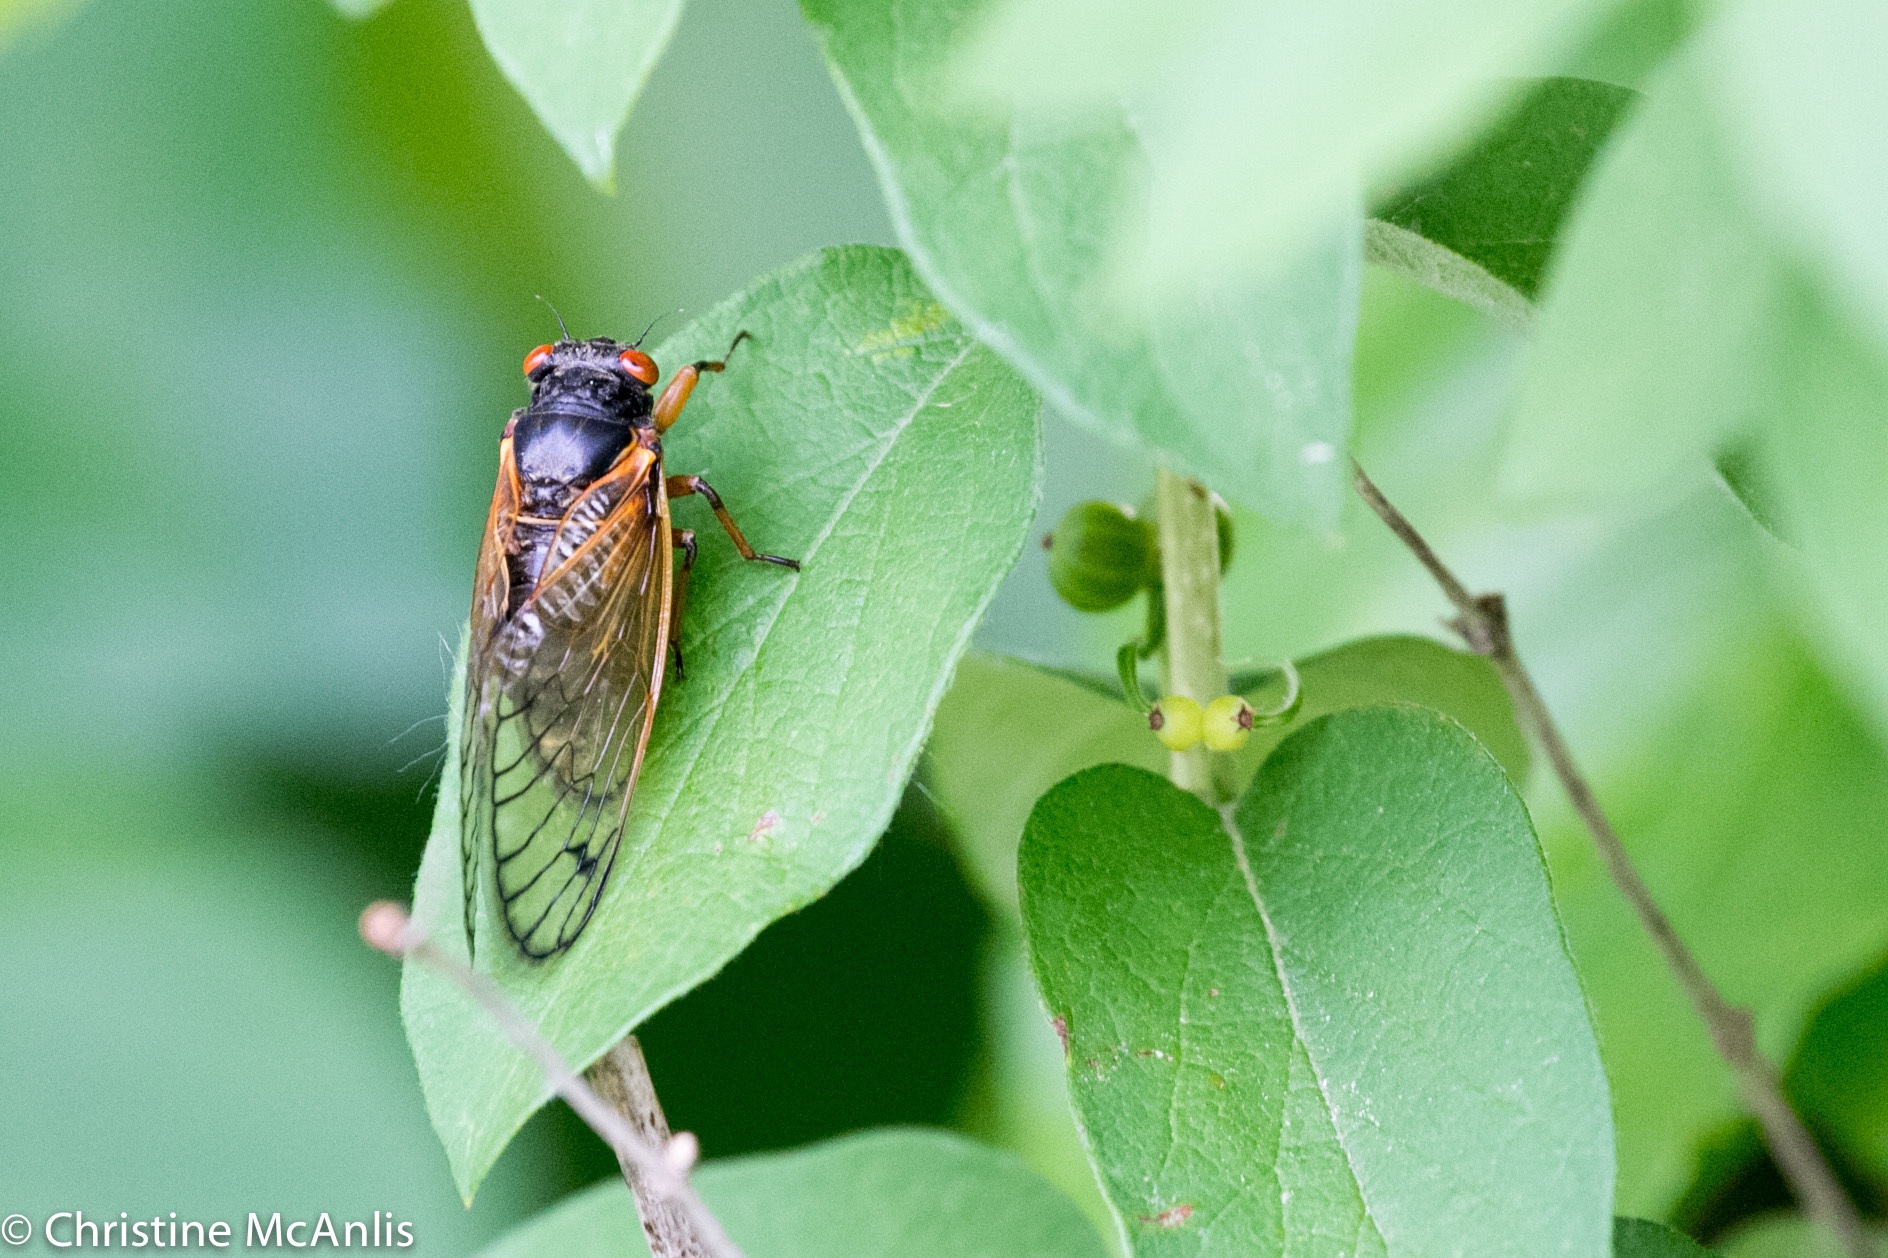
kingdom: Animalia
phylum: Arthropoda
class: Insecta
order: Hemiptera
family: Cicadidae
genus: Magicicada
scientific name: Magicicada
